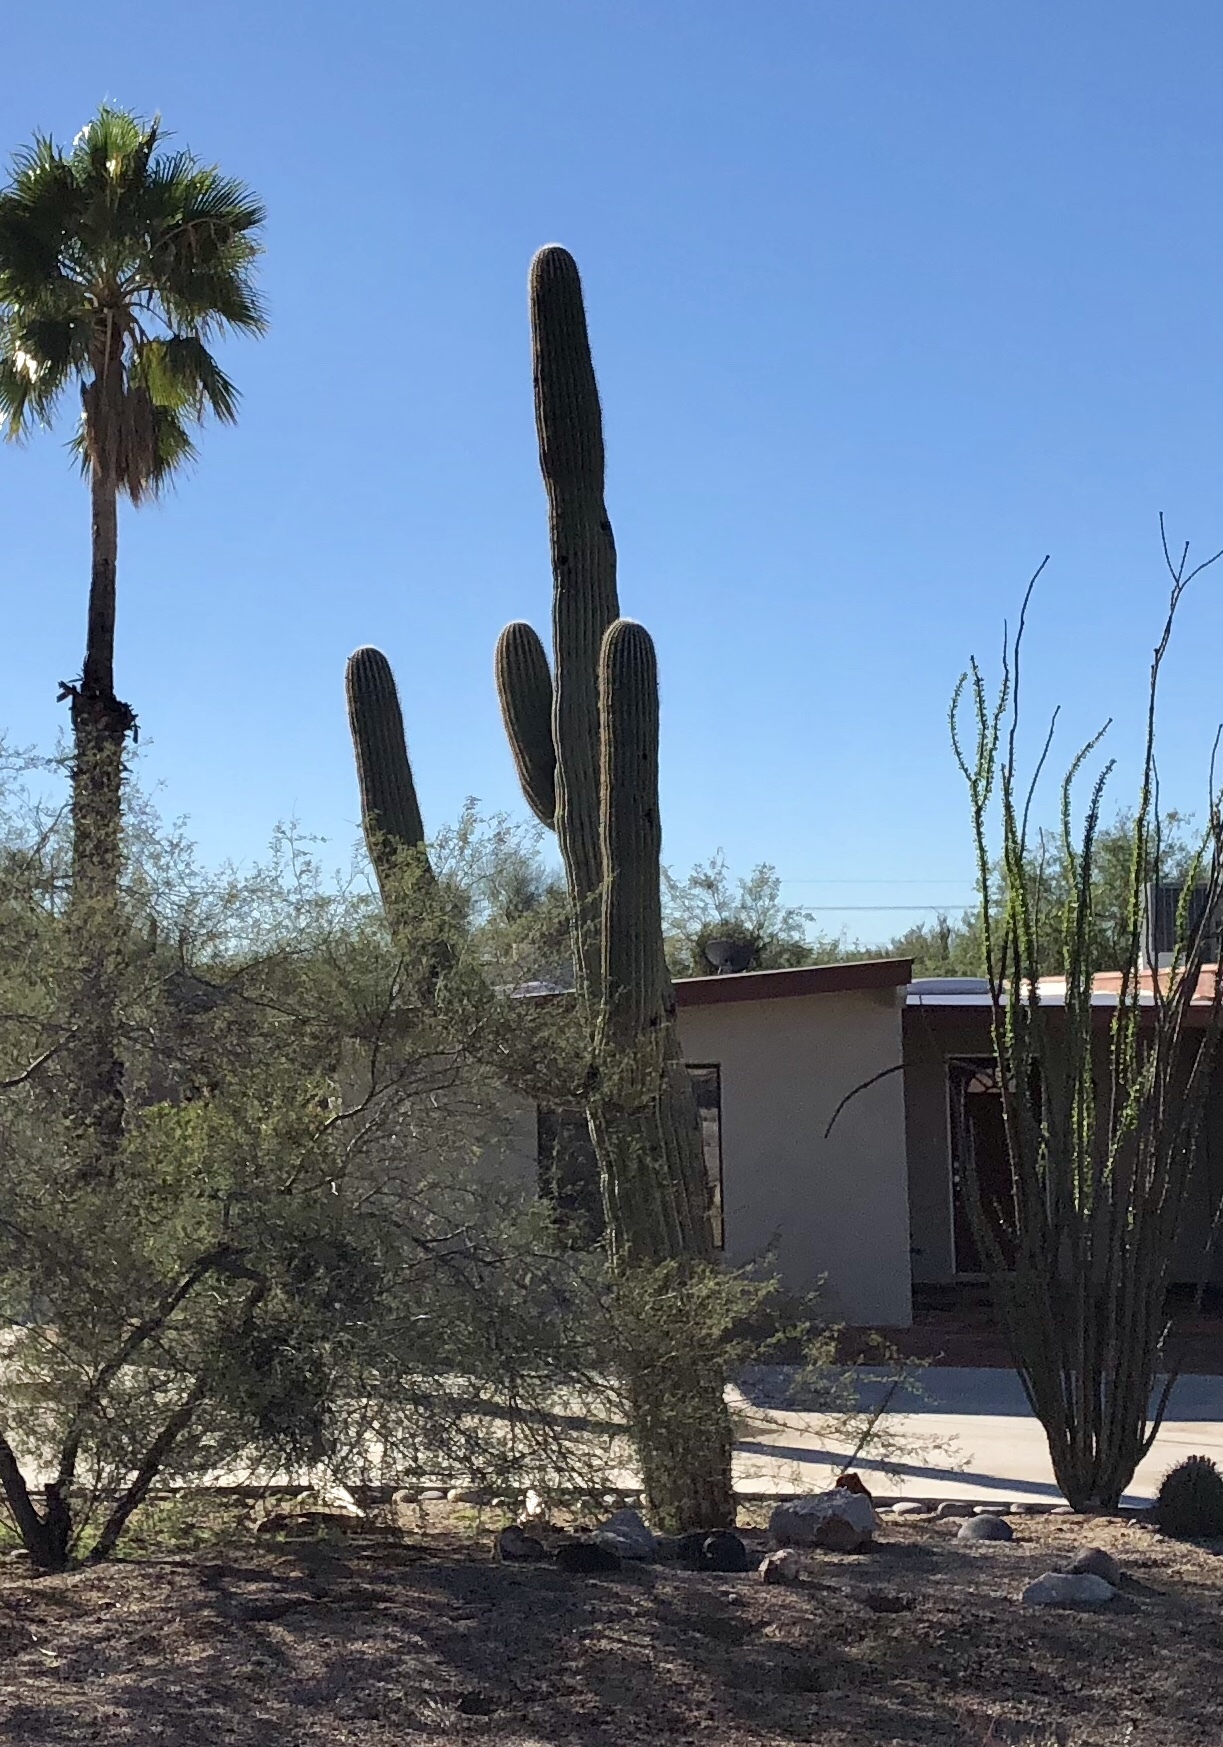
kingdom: Plantae
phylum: Tracheophyta
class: Magnoliopsida
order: Caryophyllales
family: Cactaceae
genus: Carnegiea
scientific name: Carnegiea gigantea
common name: Saguaro
